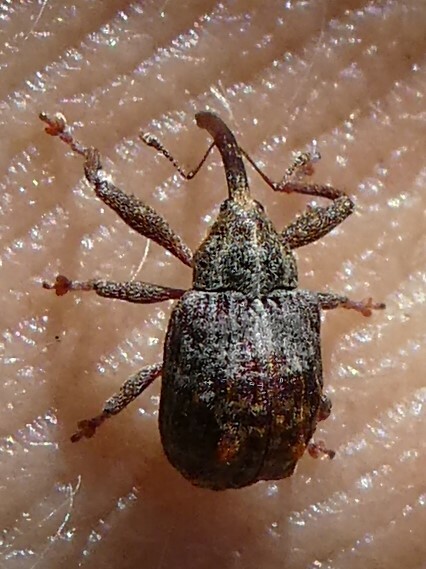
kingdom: Animalia
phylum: Arthropoda
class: Insecta
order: Coleoptera
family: Curculionidae
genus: Anthonomus
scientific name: Anthonomus quadrigibbus
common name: Apple curculio
